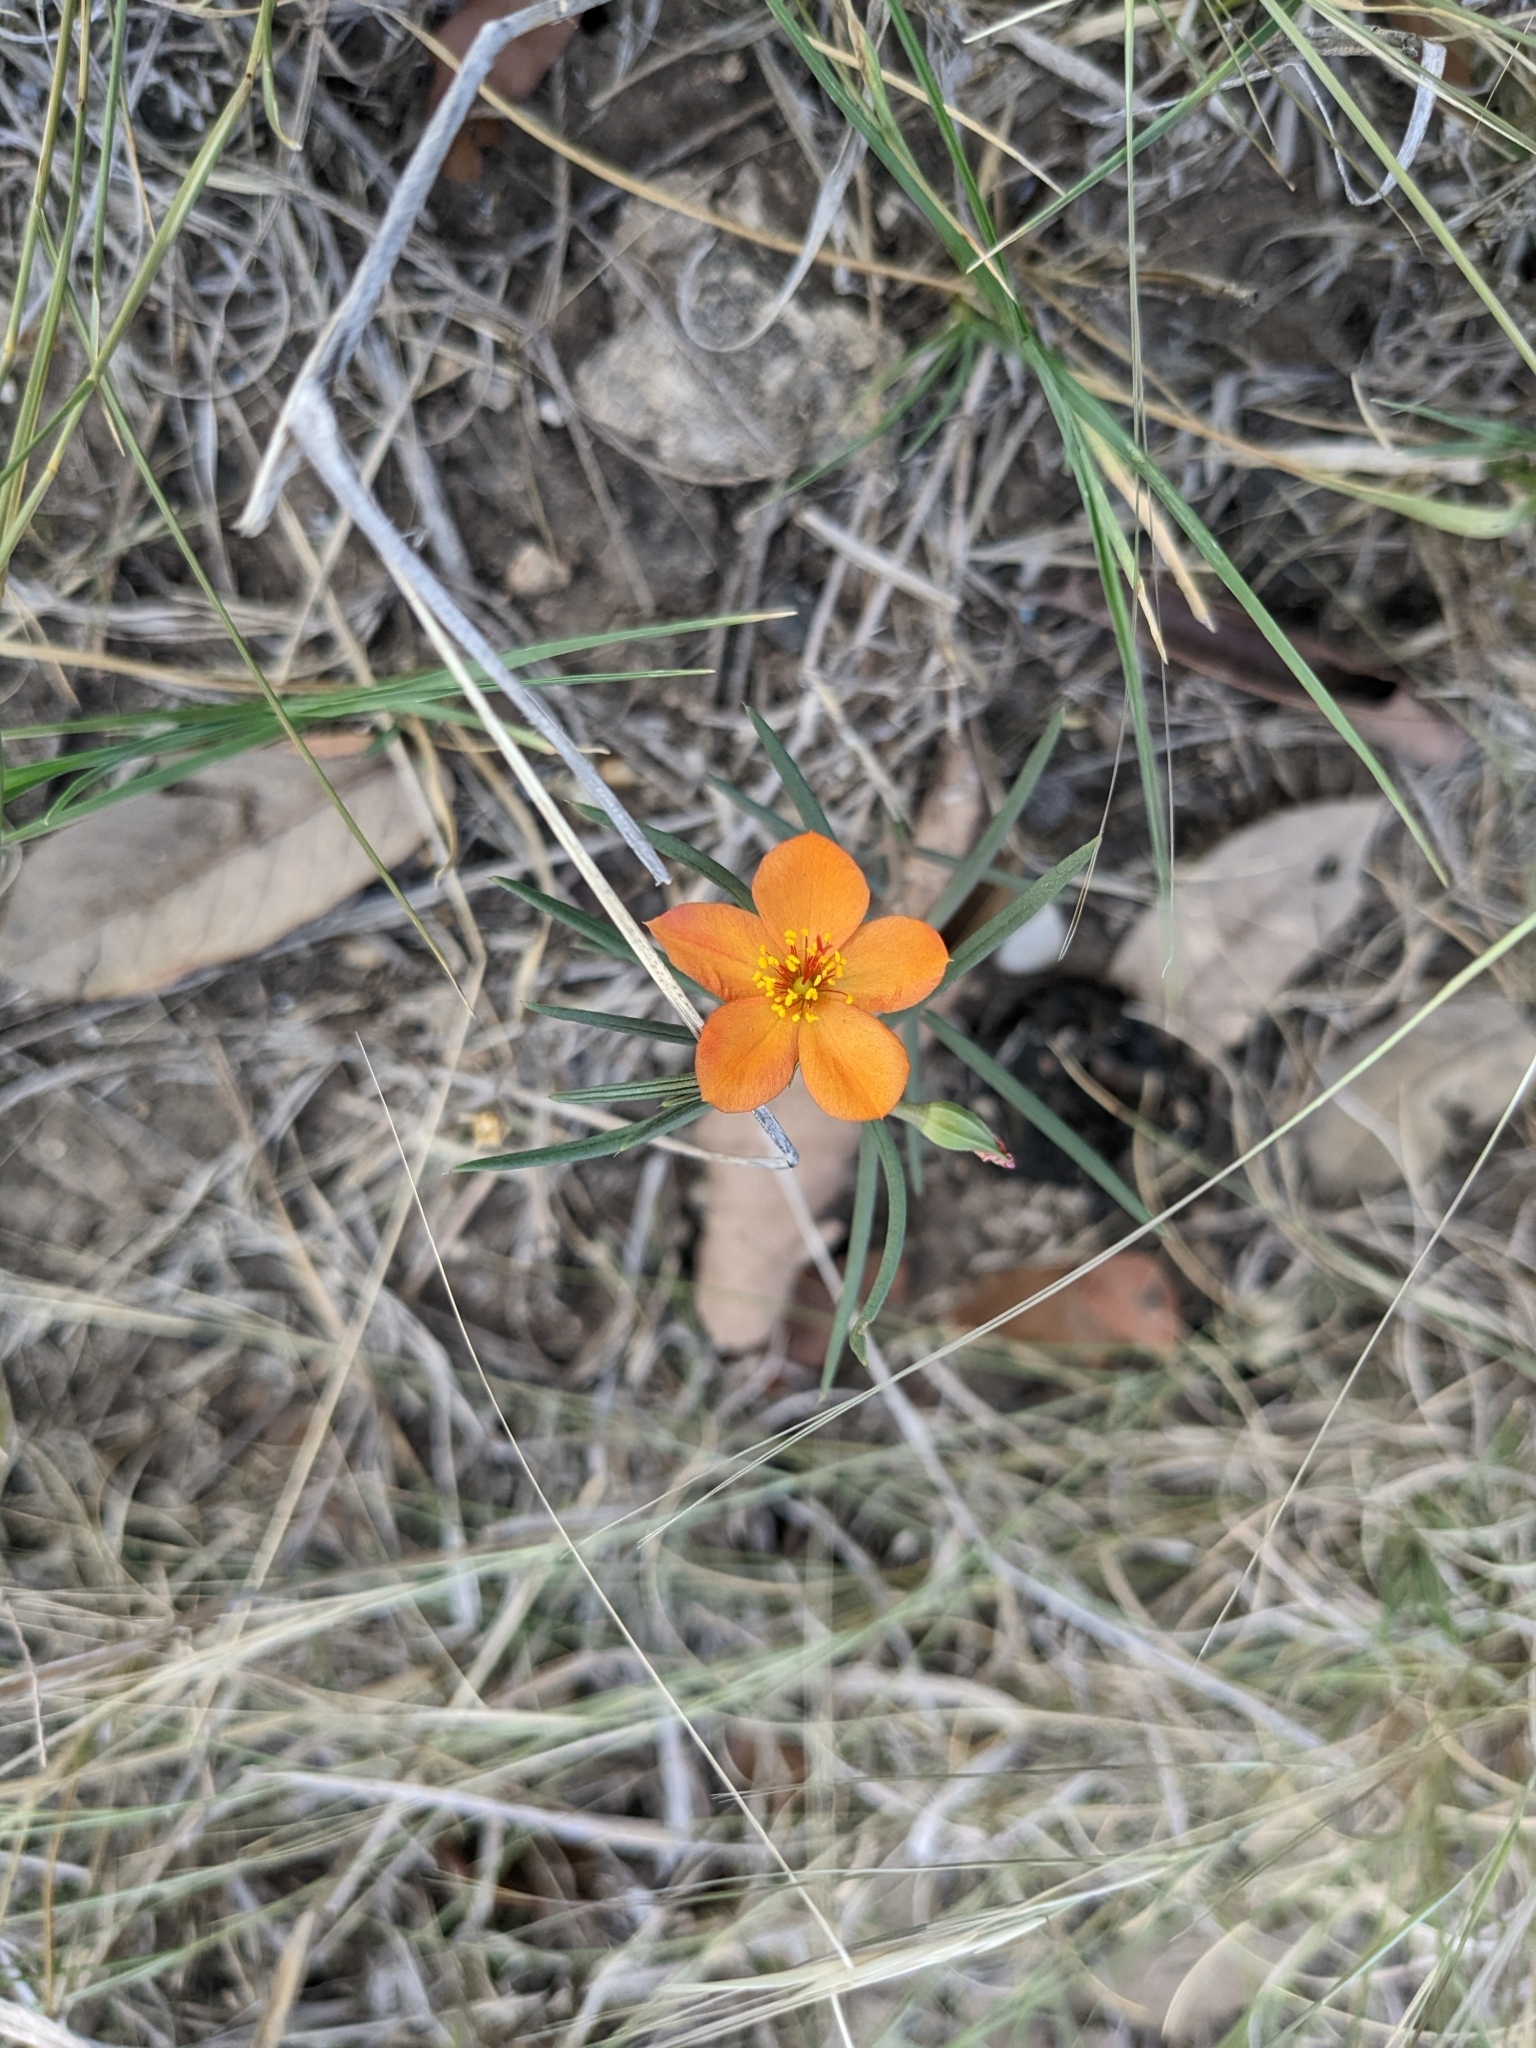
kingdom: Plantae
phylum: Tracheophyta
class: Magnoliopsida
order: Caryophyllales
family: Montiaceae
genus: Phemeranthus
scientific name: Phemeranthus aurantiacus
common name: Orange fameflower
